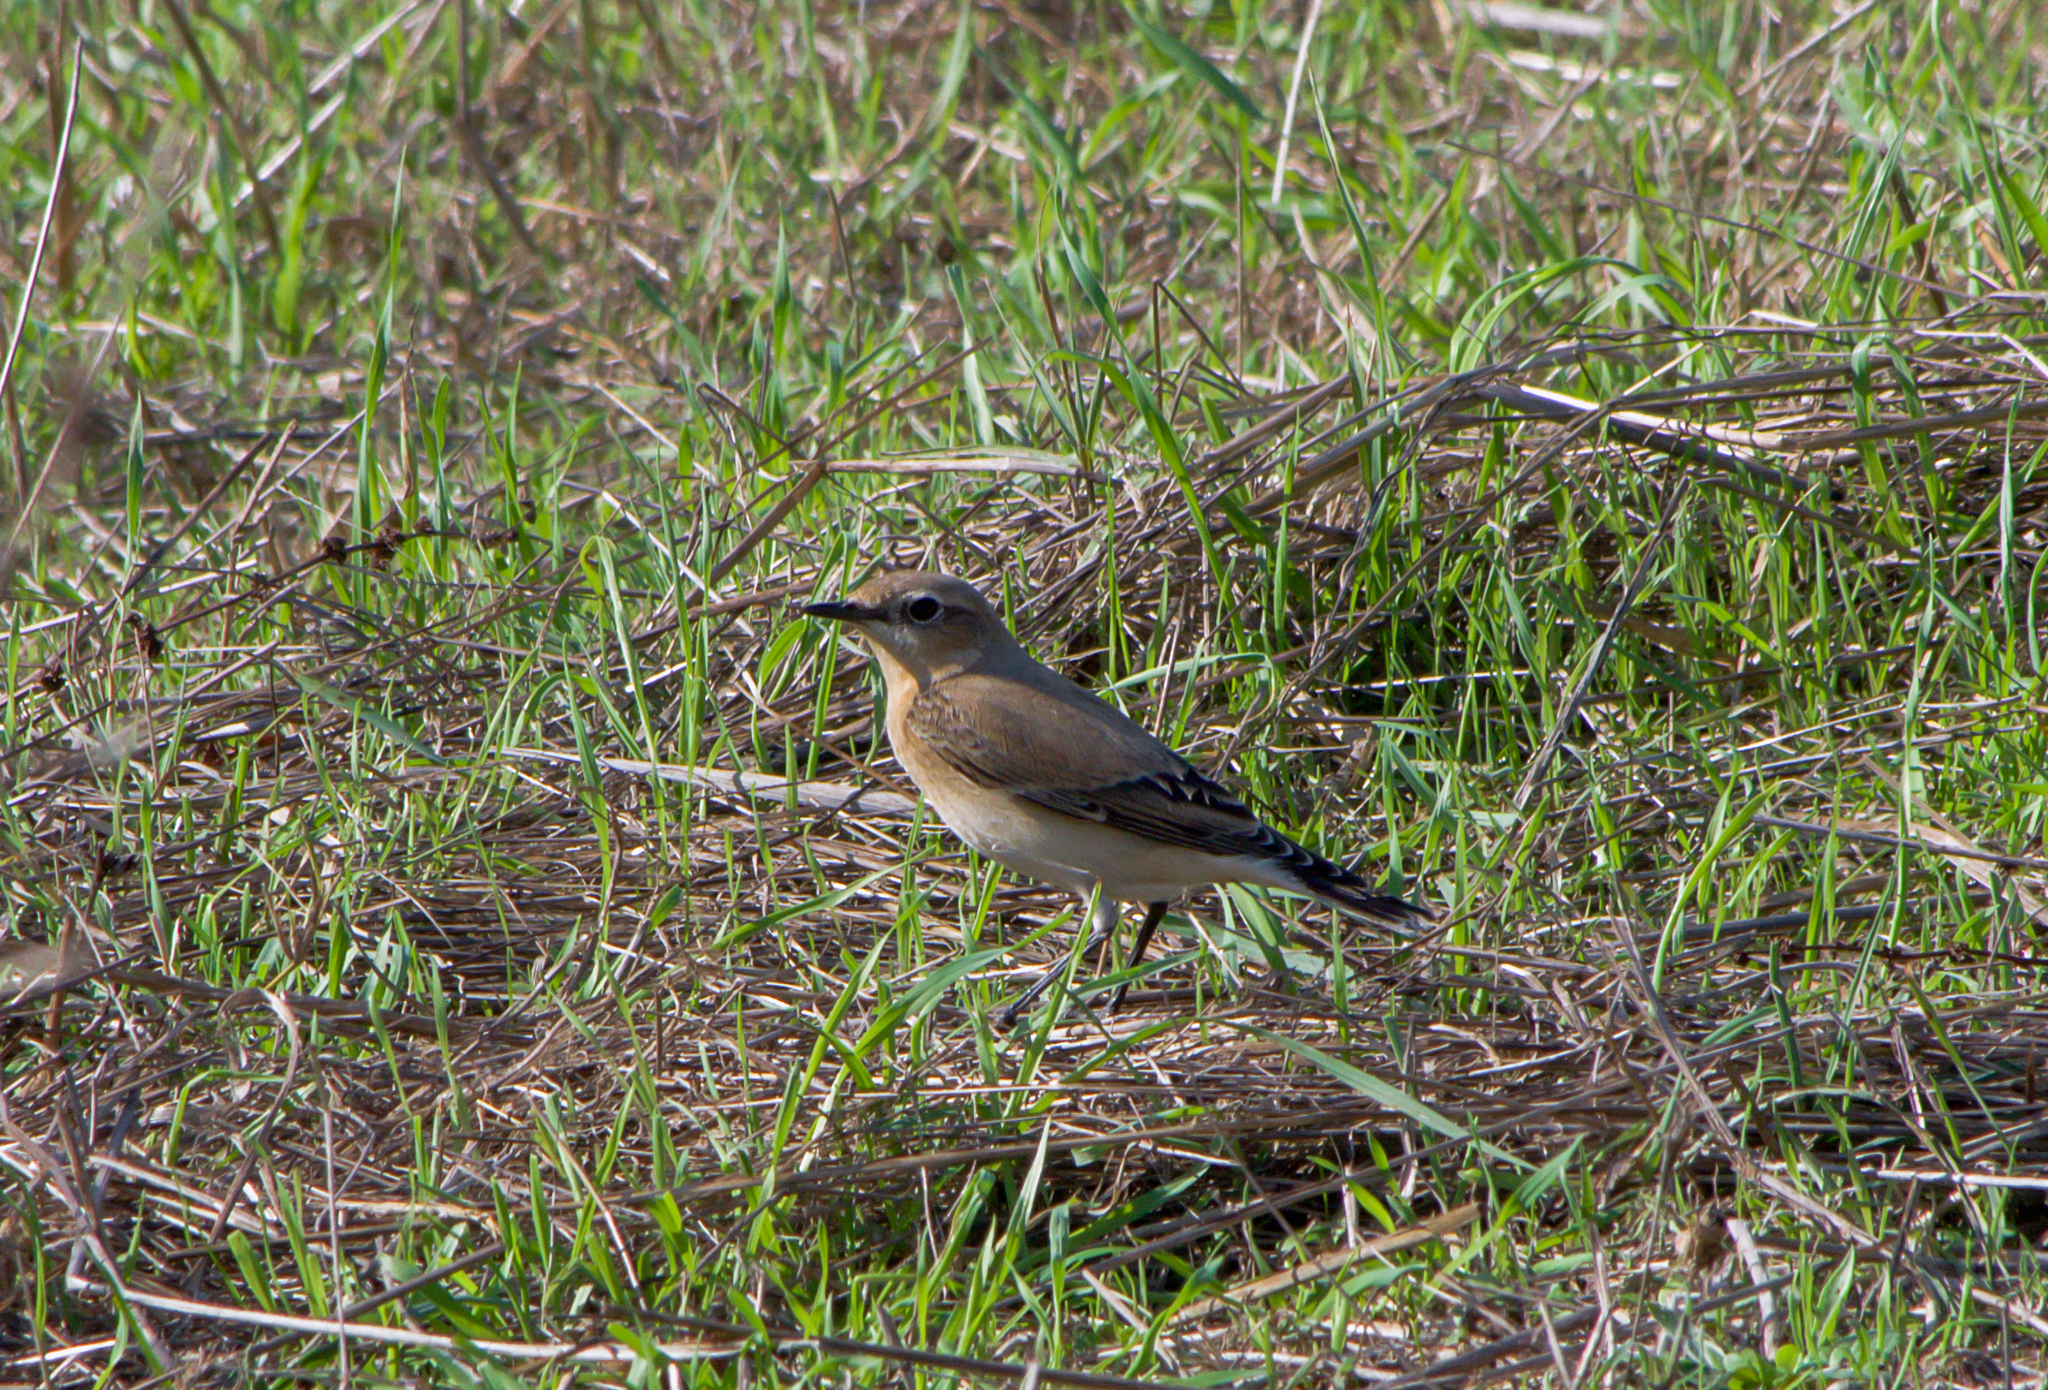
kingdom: Animalia
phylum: Chordata
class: Aves
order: Passeriformes
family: Muscicapidae
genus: Oenanthe
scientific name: Oenanthe oenanthe
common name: Northern wheatear
